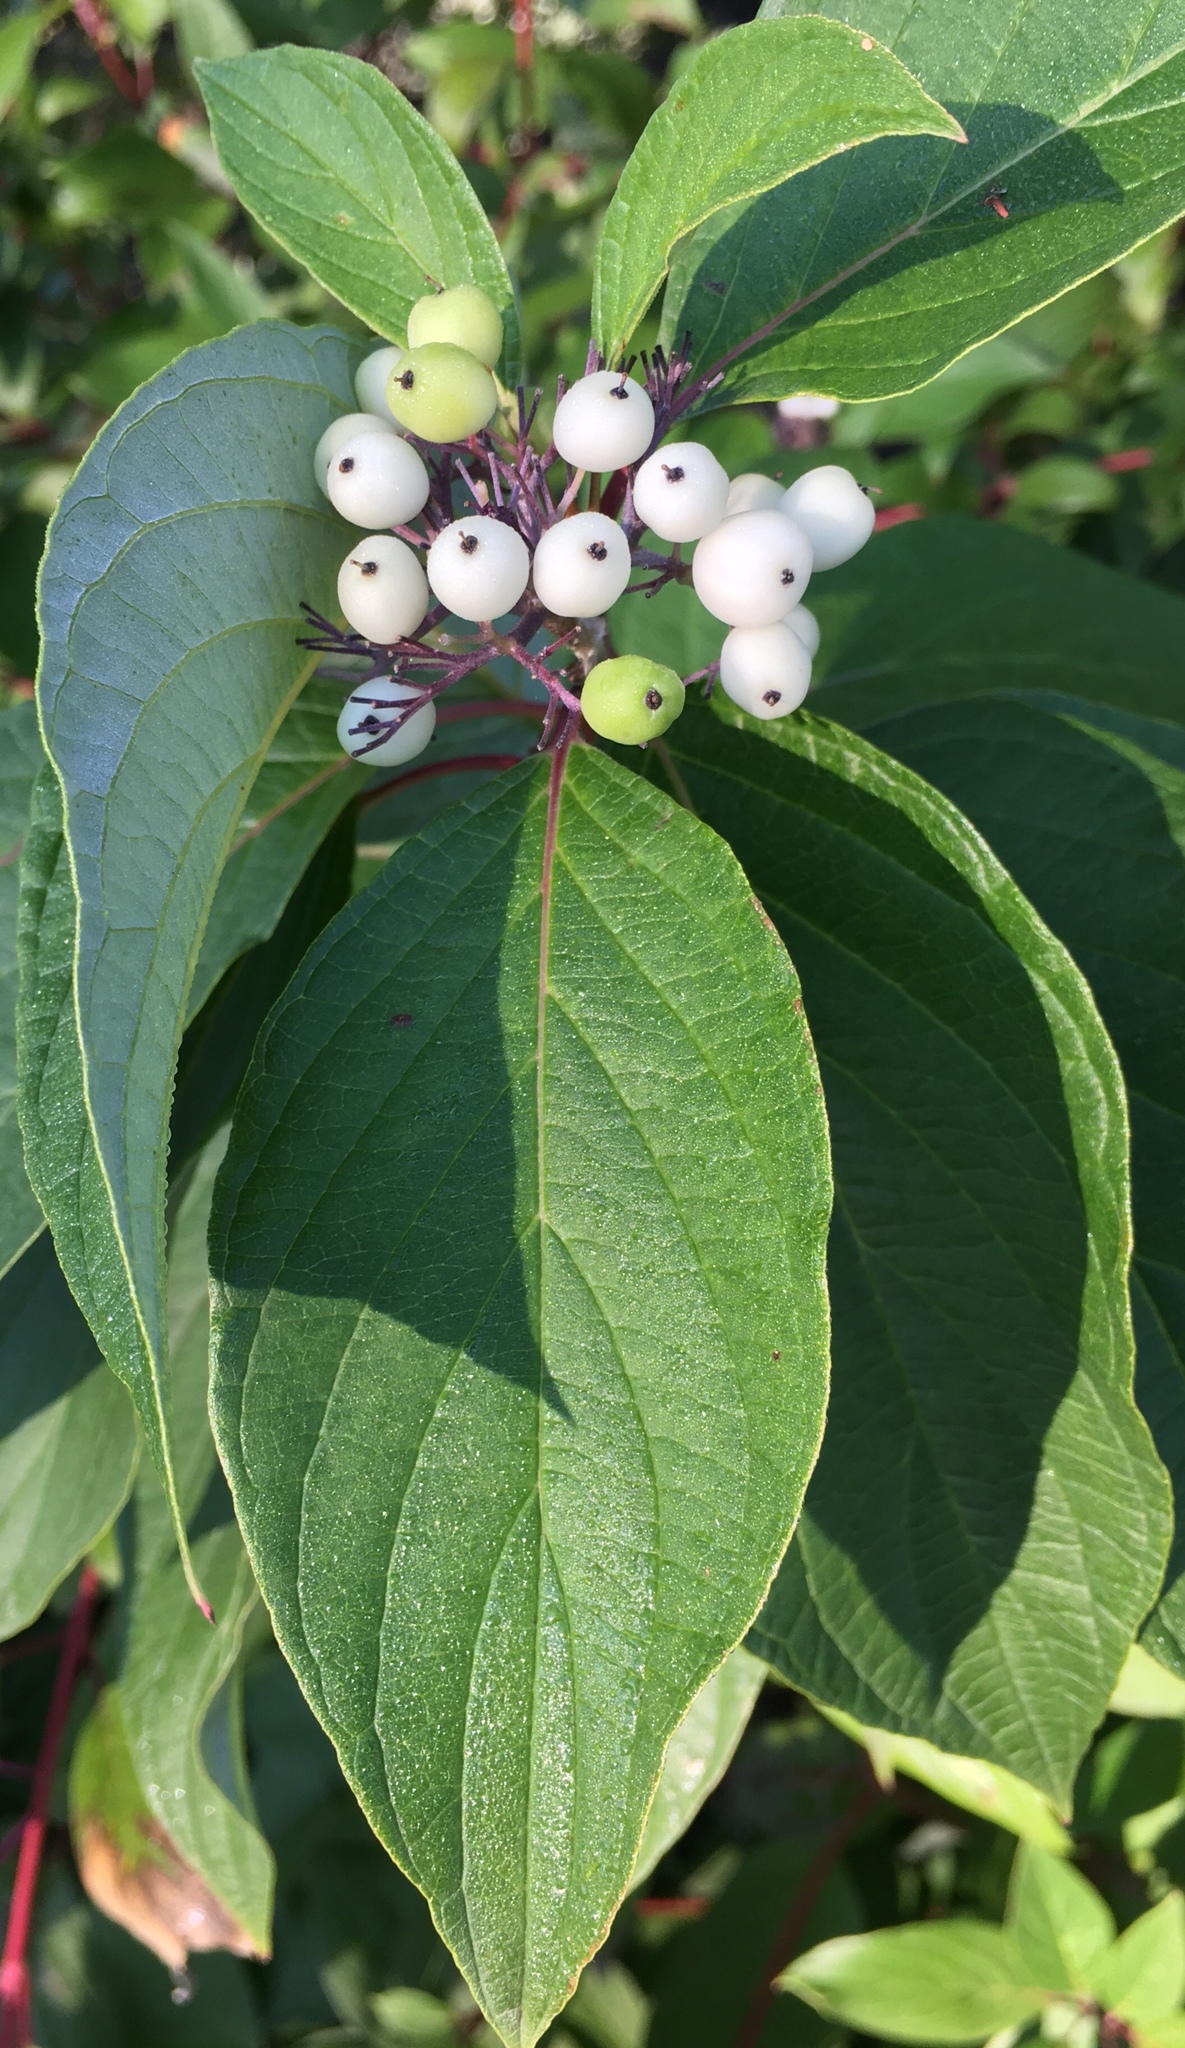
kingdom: Plantae
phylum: Tracheophyta
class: Magnoliopsida
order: Cornales
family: Cornaceae
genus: Cornus
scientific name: Cornus sericea
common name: Red-osier dogwood
